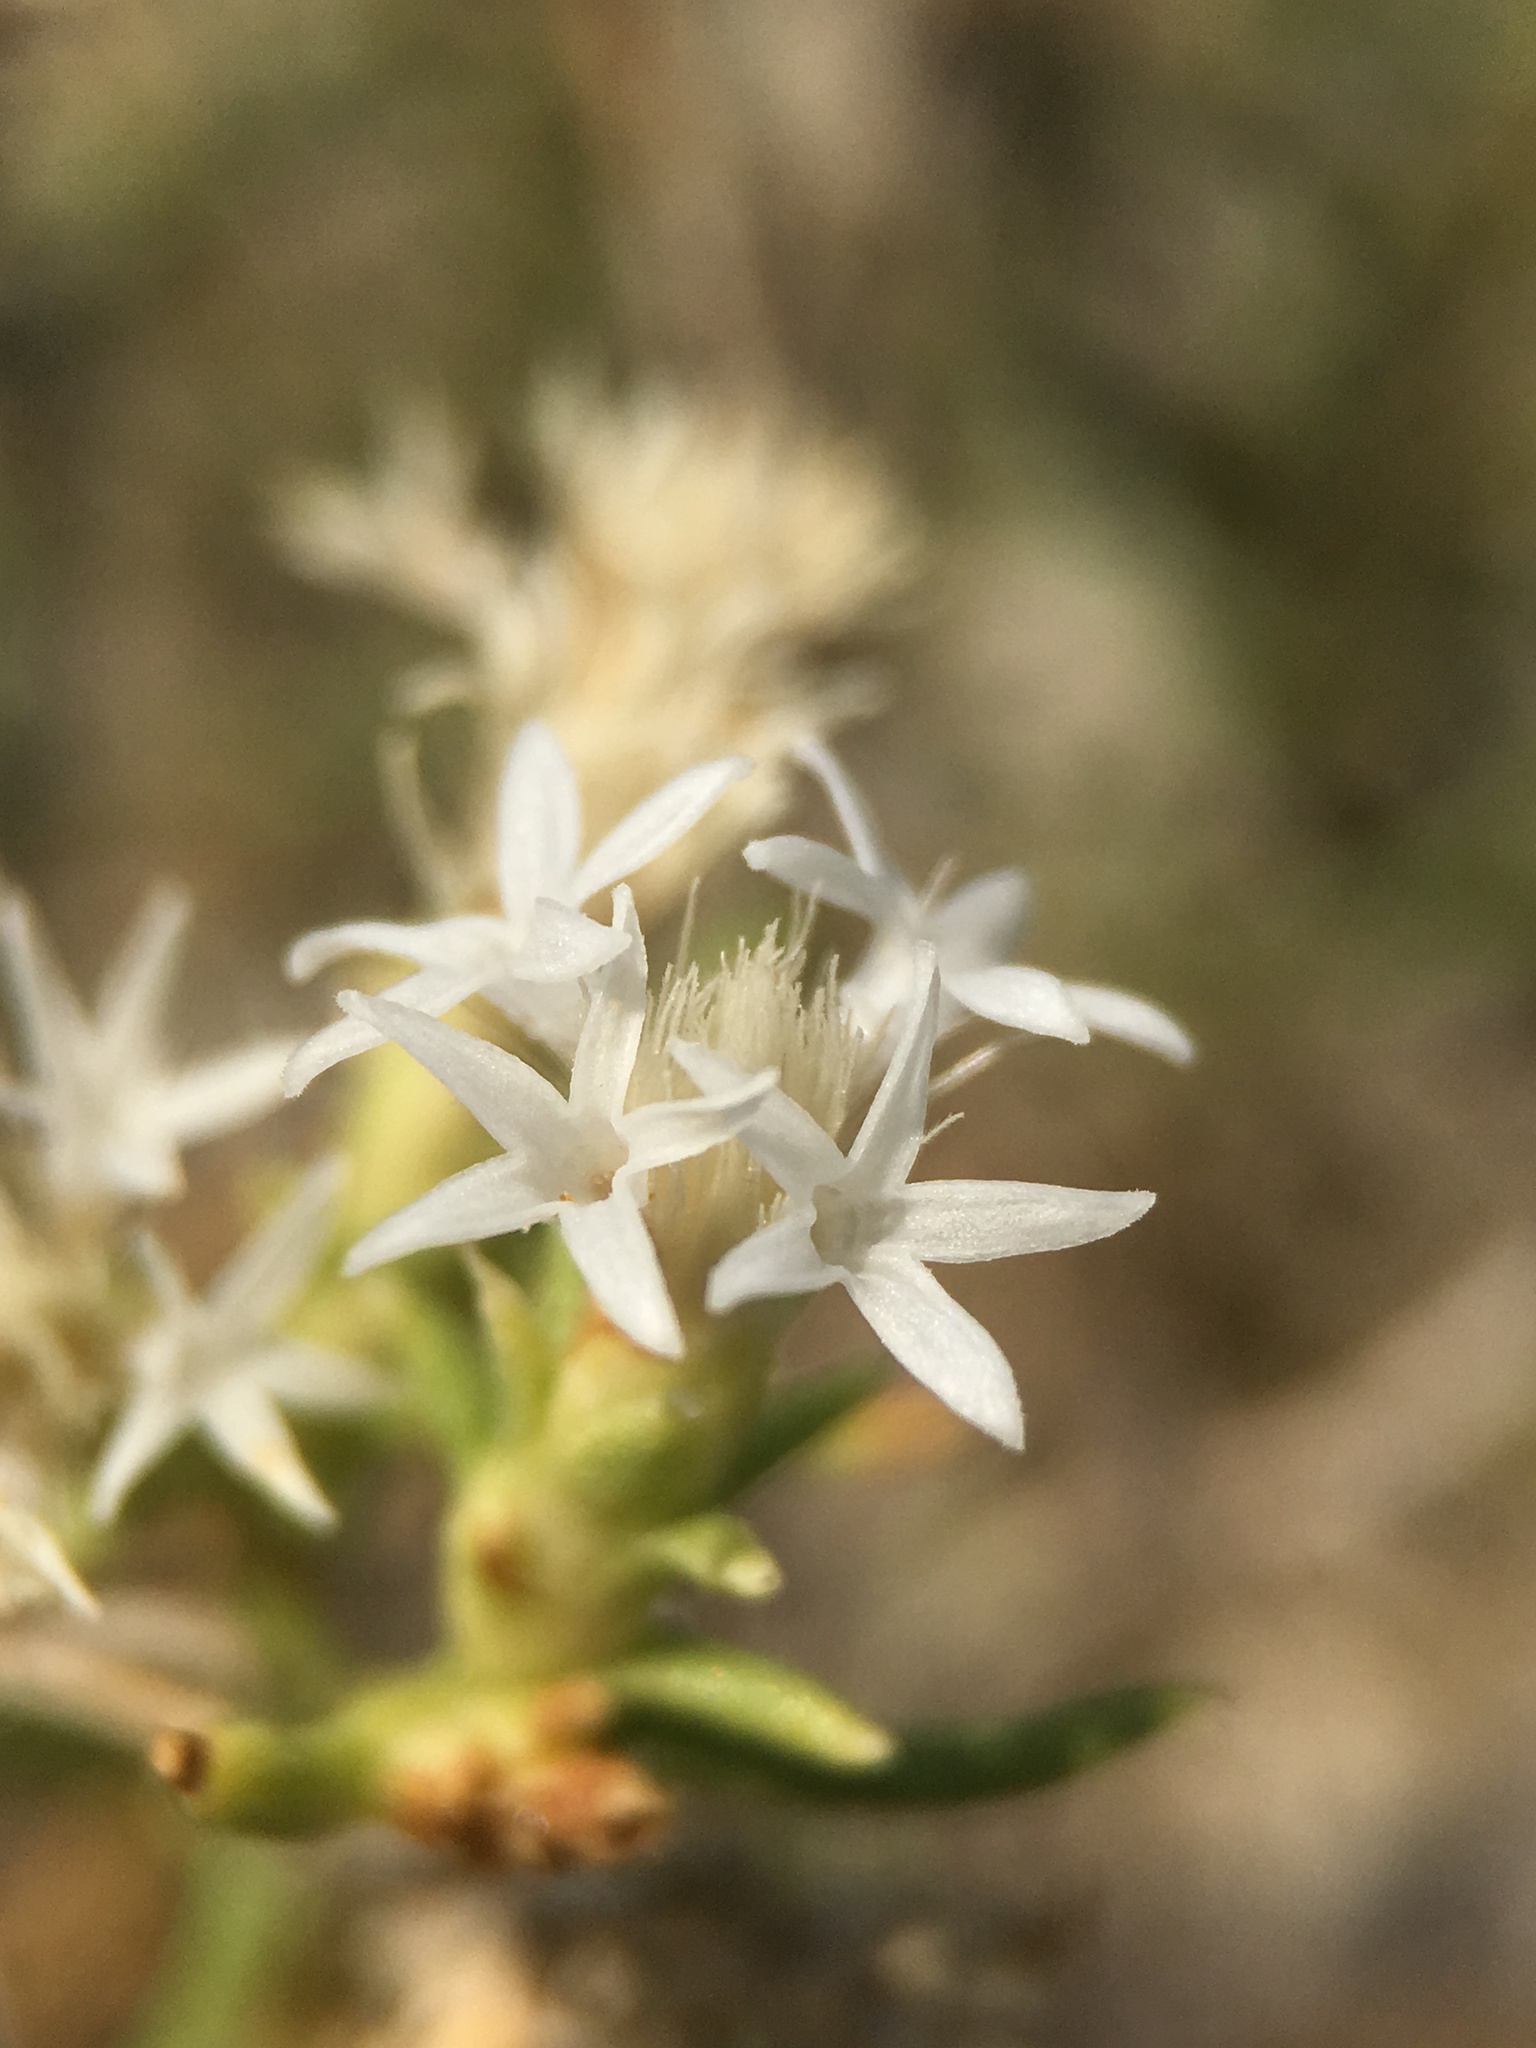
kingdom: Plantae
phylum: Tracheophyta
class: Magnoliopsida
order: Asterales
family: Asteraceae
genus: Ericameria
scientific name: Ericameria albida
